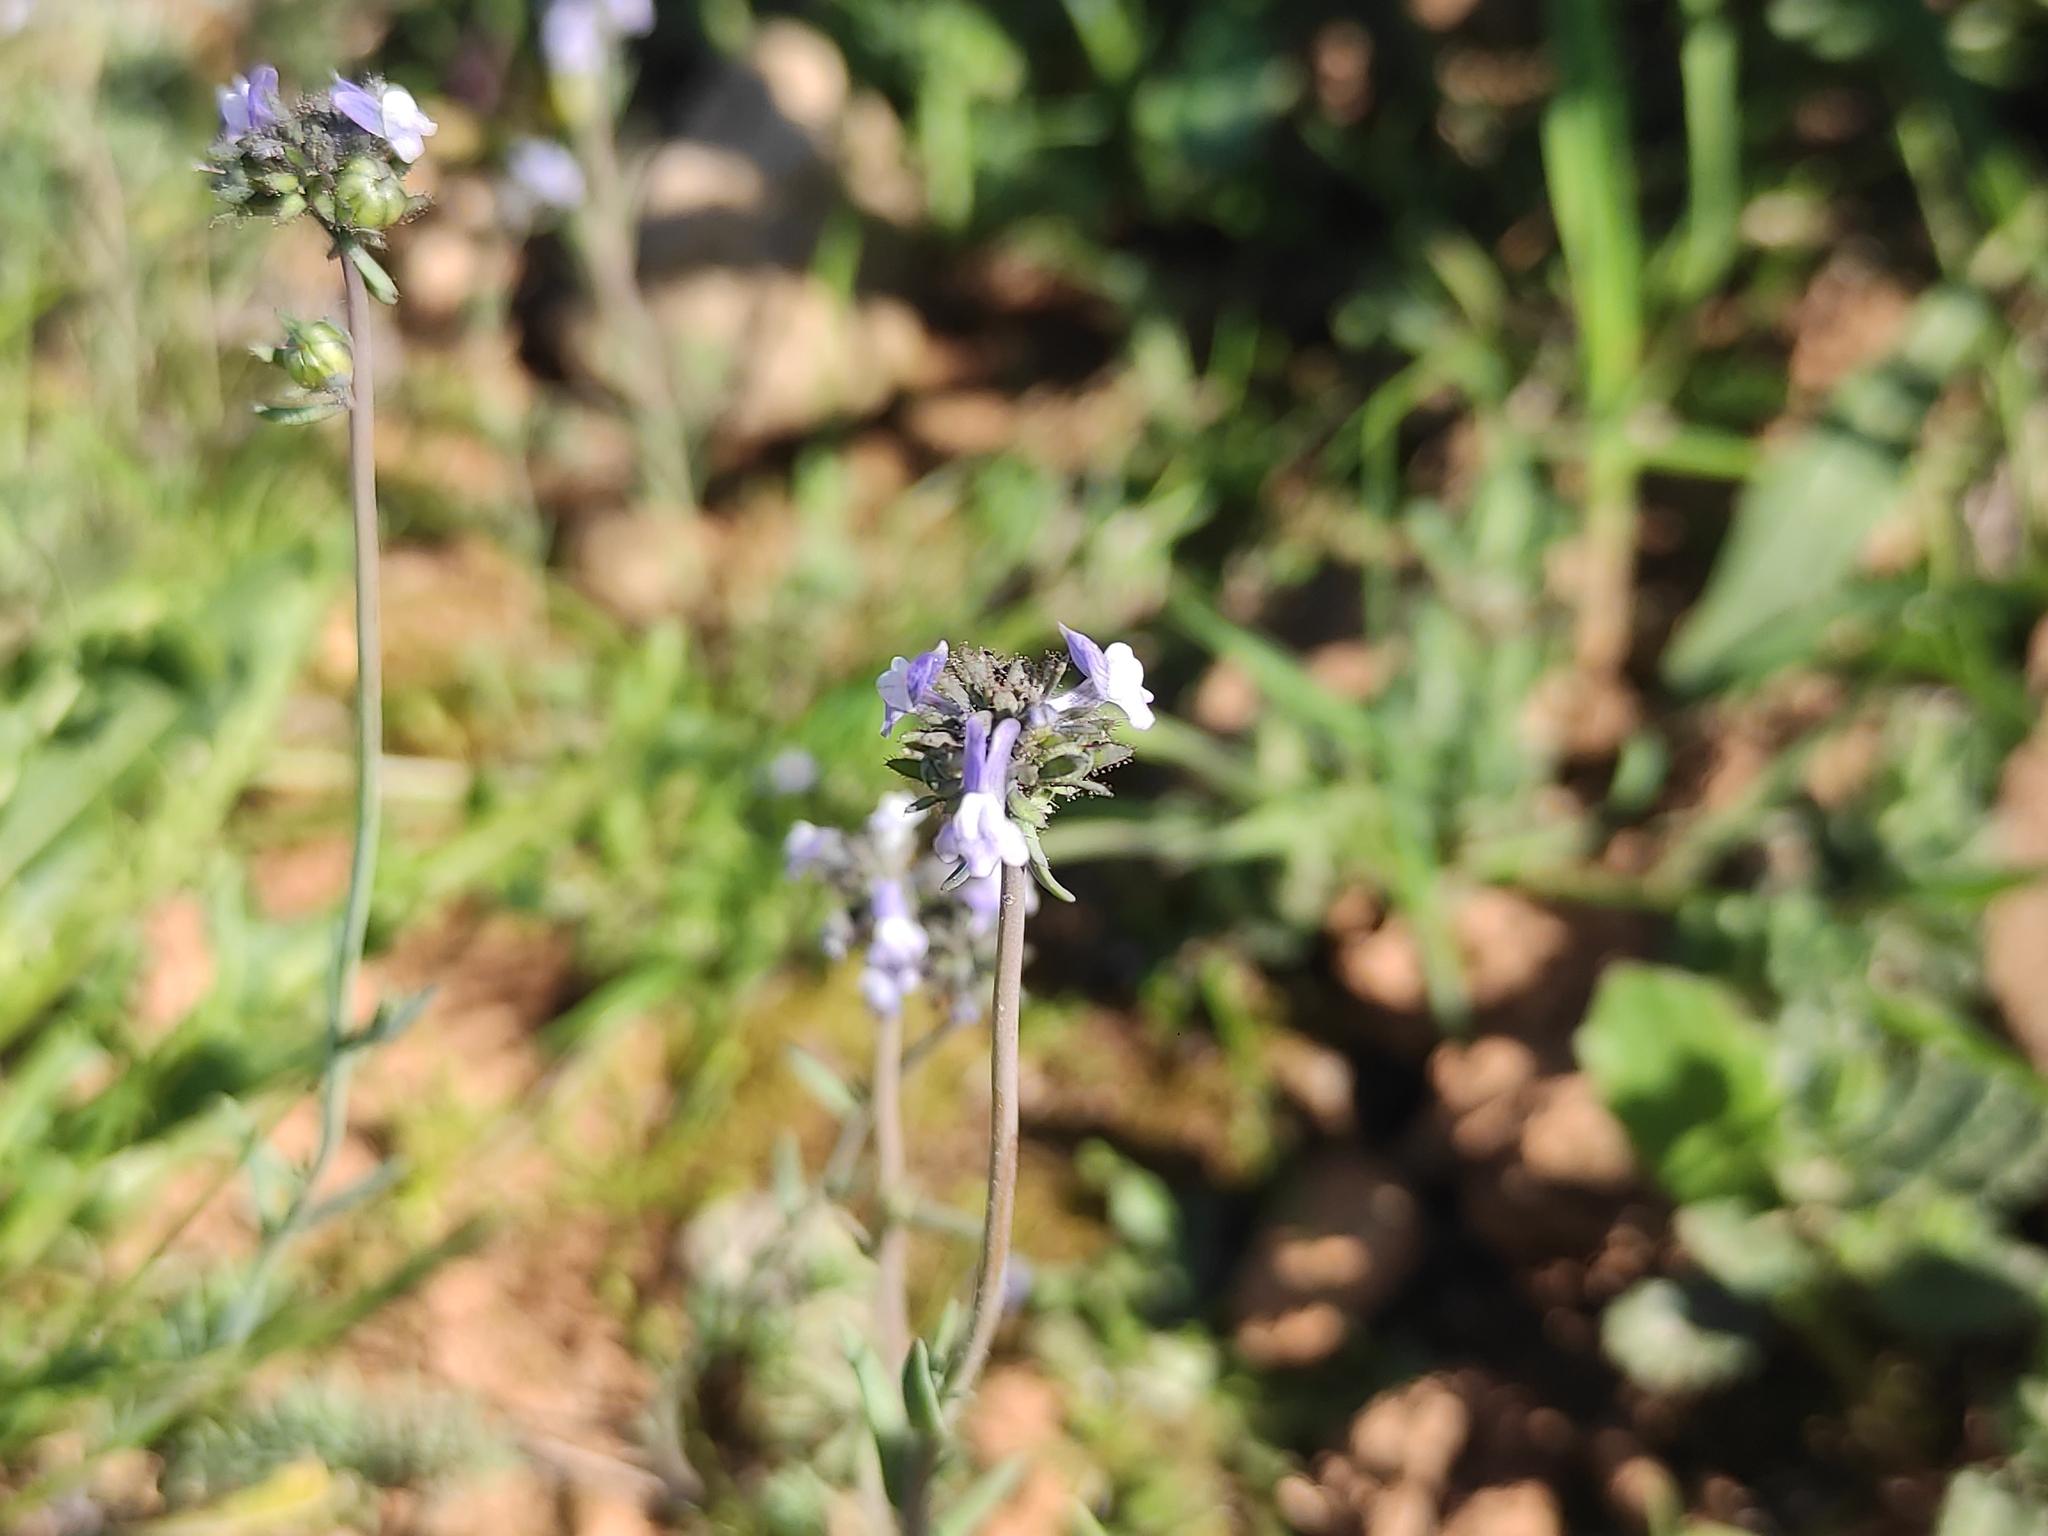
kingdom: Plantae
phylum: Tracheophyta
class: Magnoliopsida
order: Lamiales
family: Plantaginaceae
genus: Linaria
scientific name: Linaria arvensis
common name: Corn toadflax
